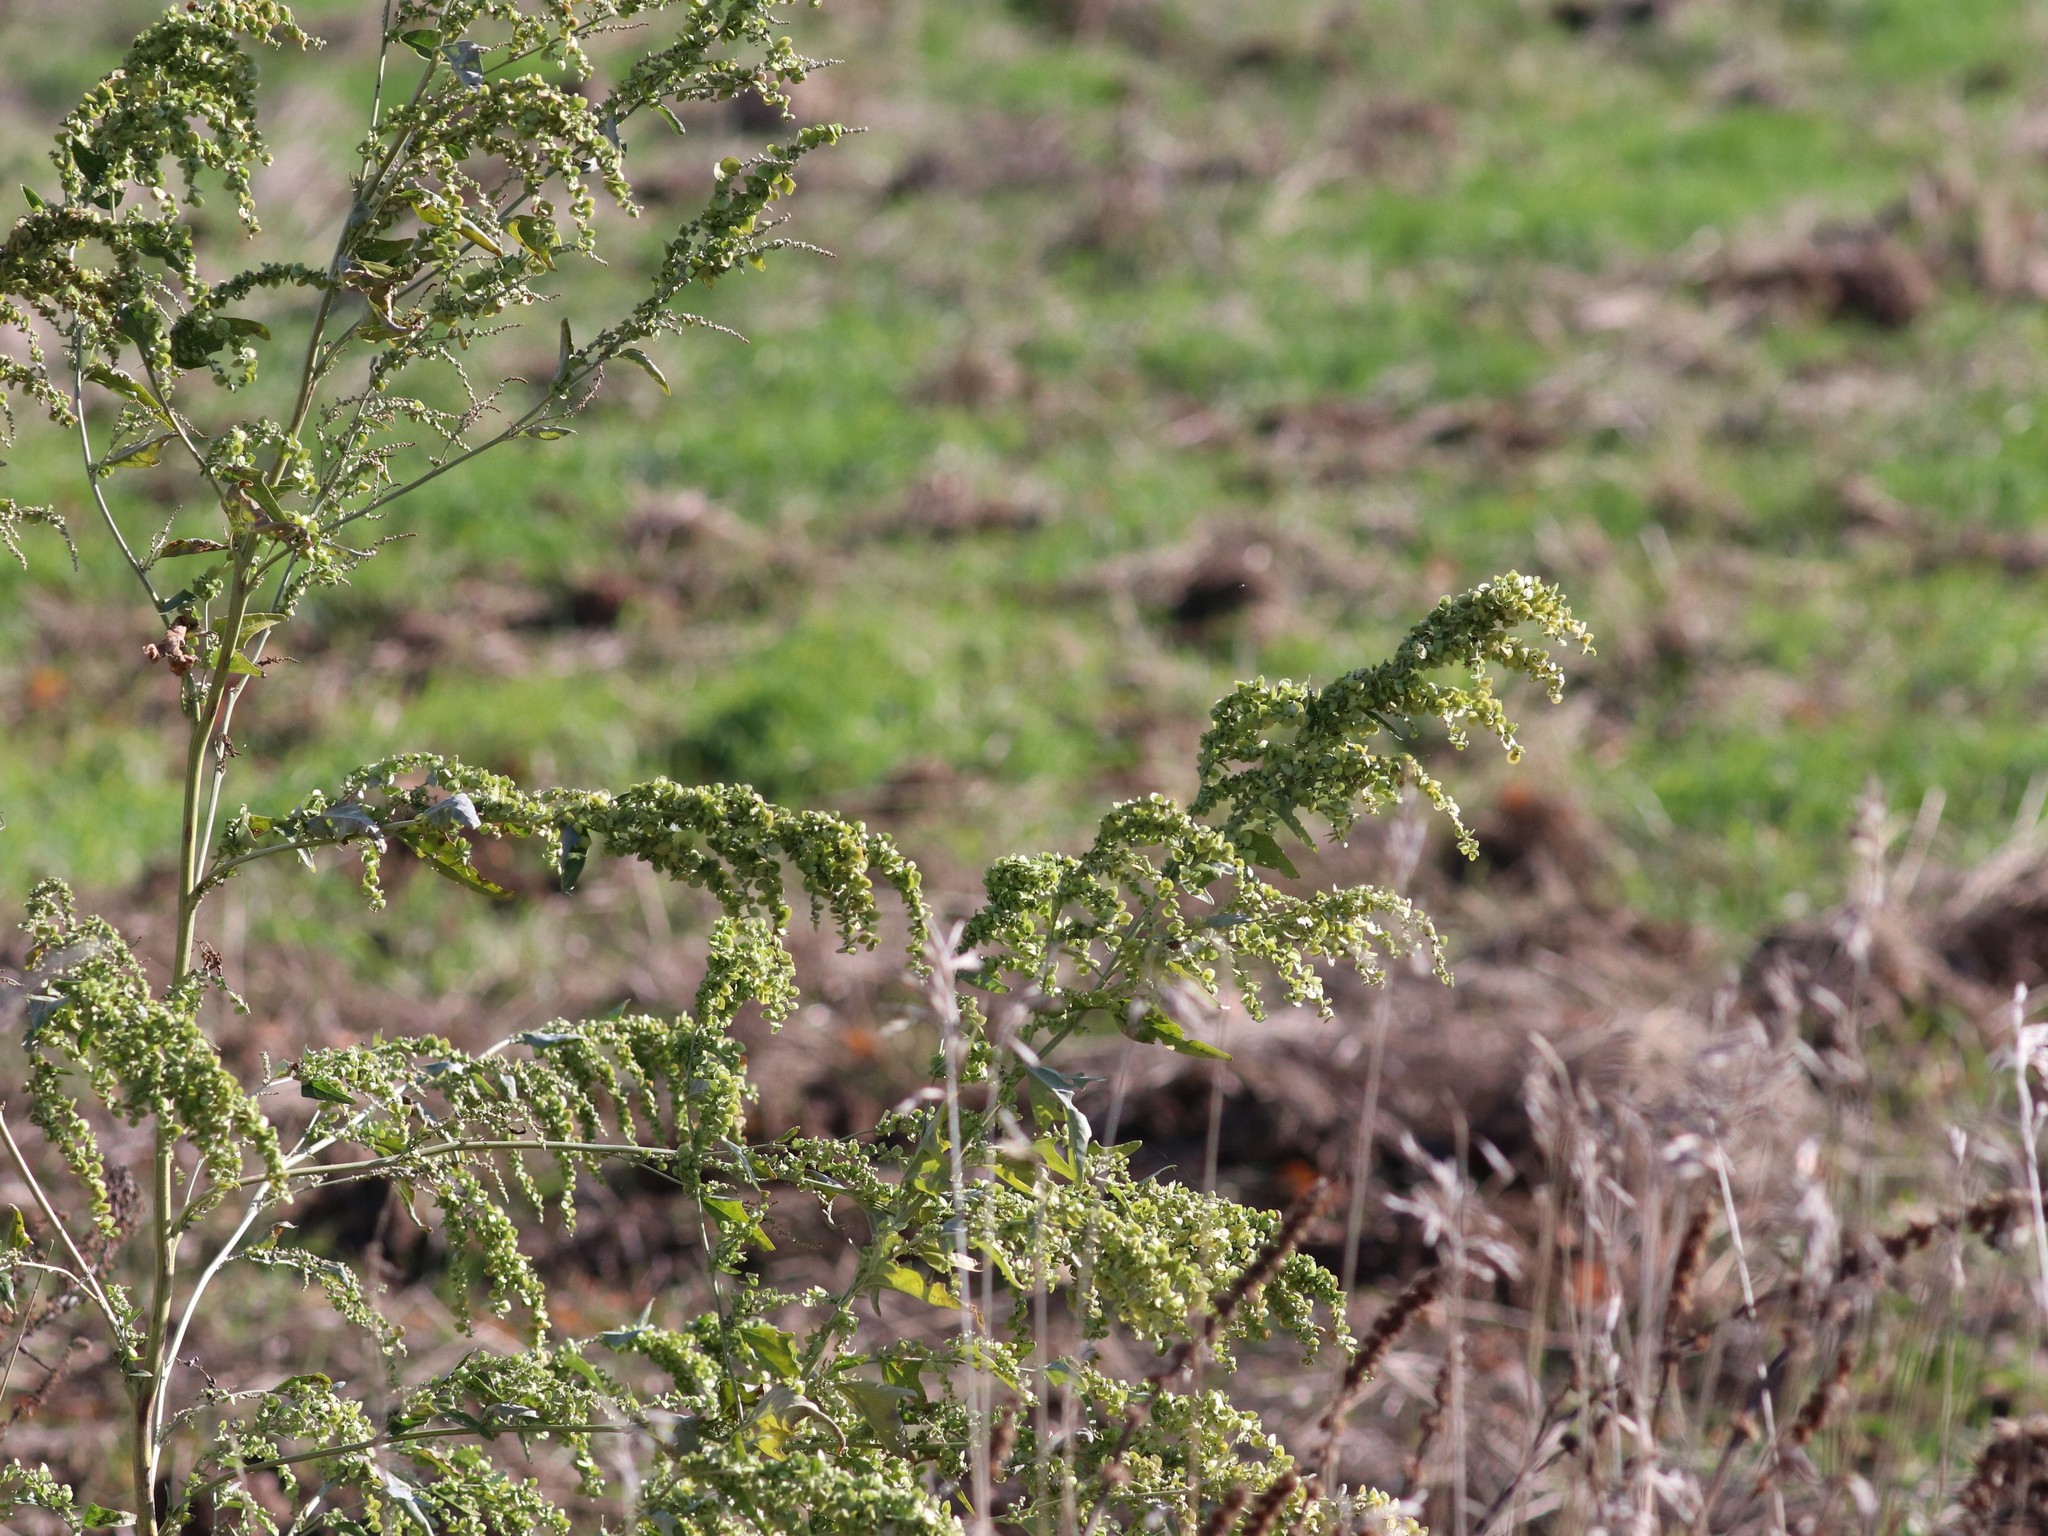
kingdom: Plantae
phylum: Tracheophyta
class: Magnoliopsida
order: Caryophyllales
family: Amaranthaceae
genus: Atriplex
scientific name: Atriplex sagittata
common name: Purple orache
